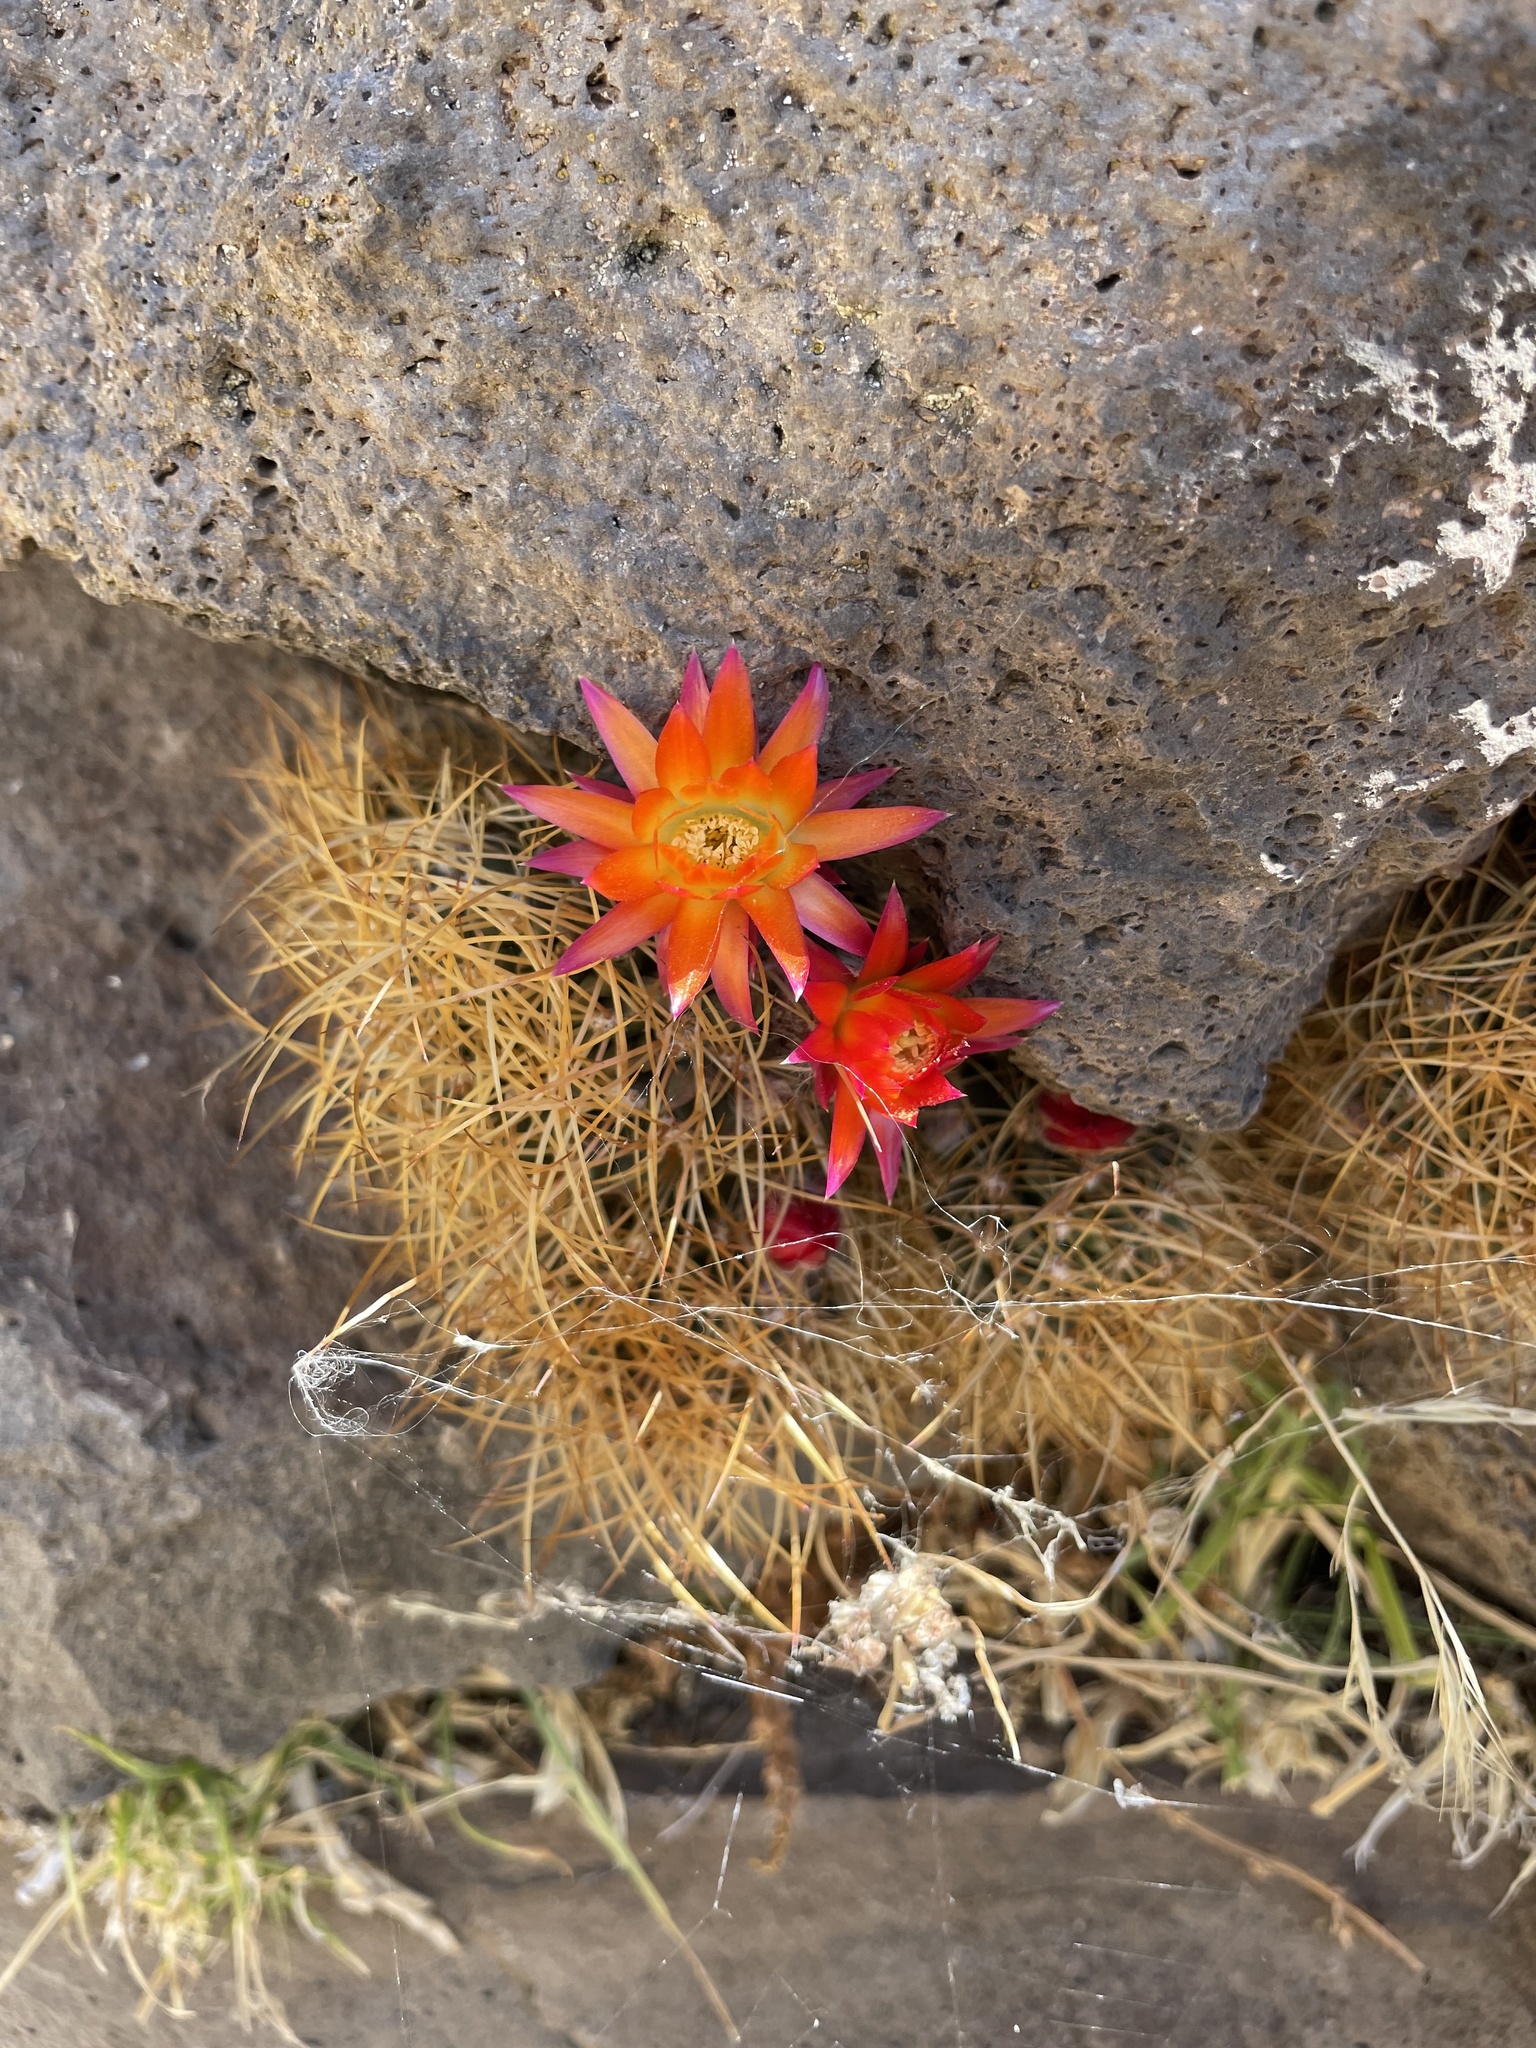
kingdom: Plantae
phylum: Tracheophyta
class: Magnoliopsida
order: Caryophyllales
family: Cactaceae
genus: Lobivia
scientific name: Lobivia maximiliana
